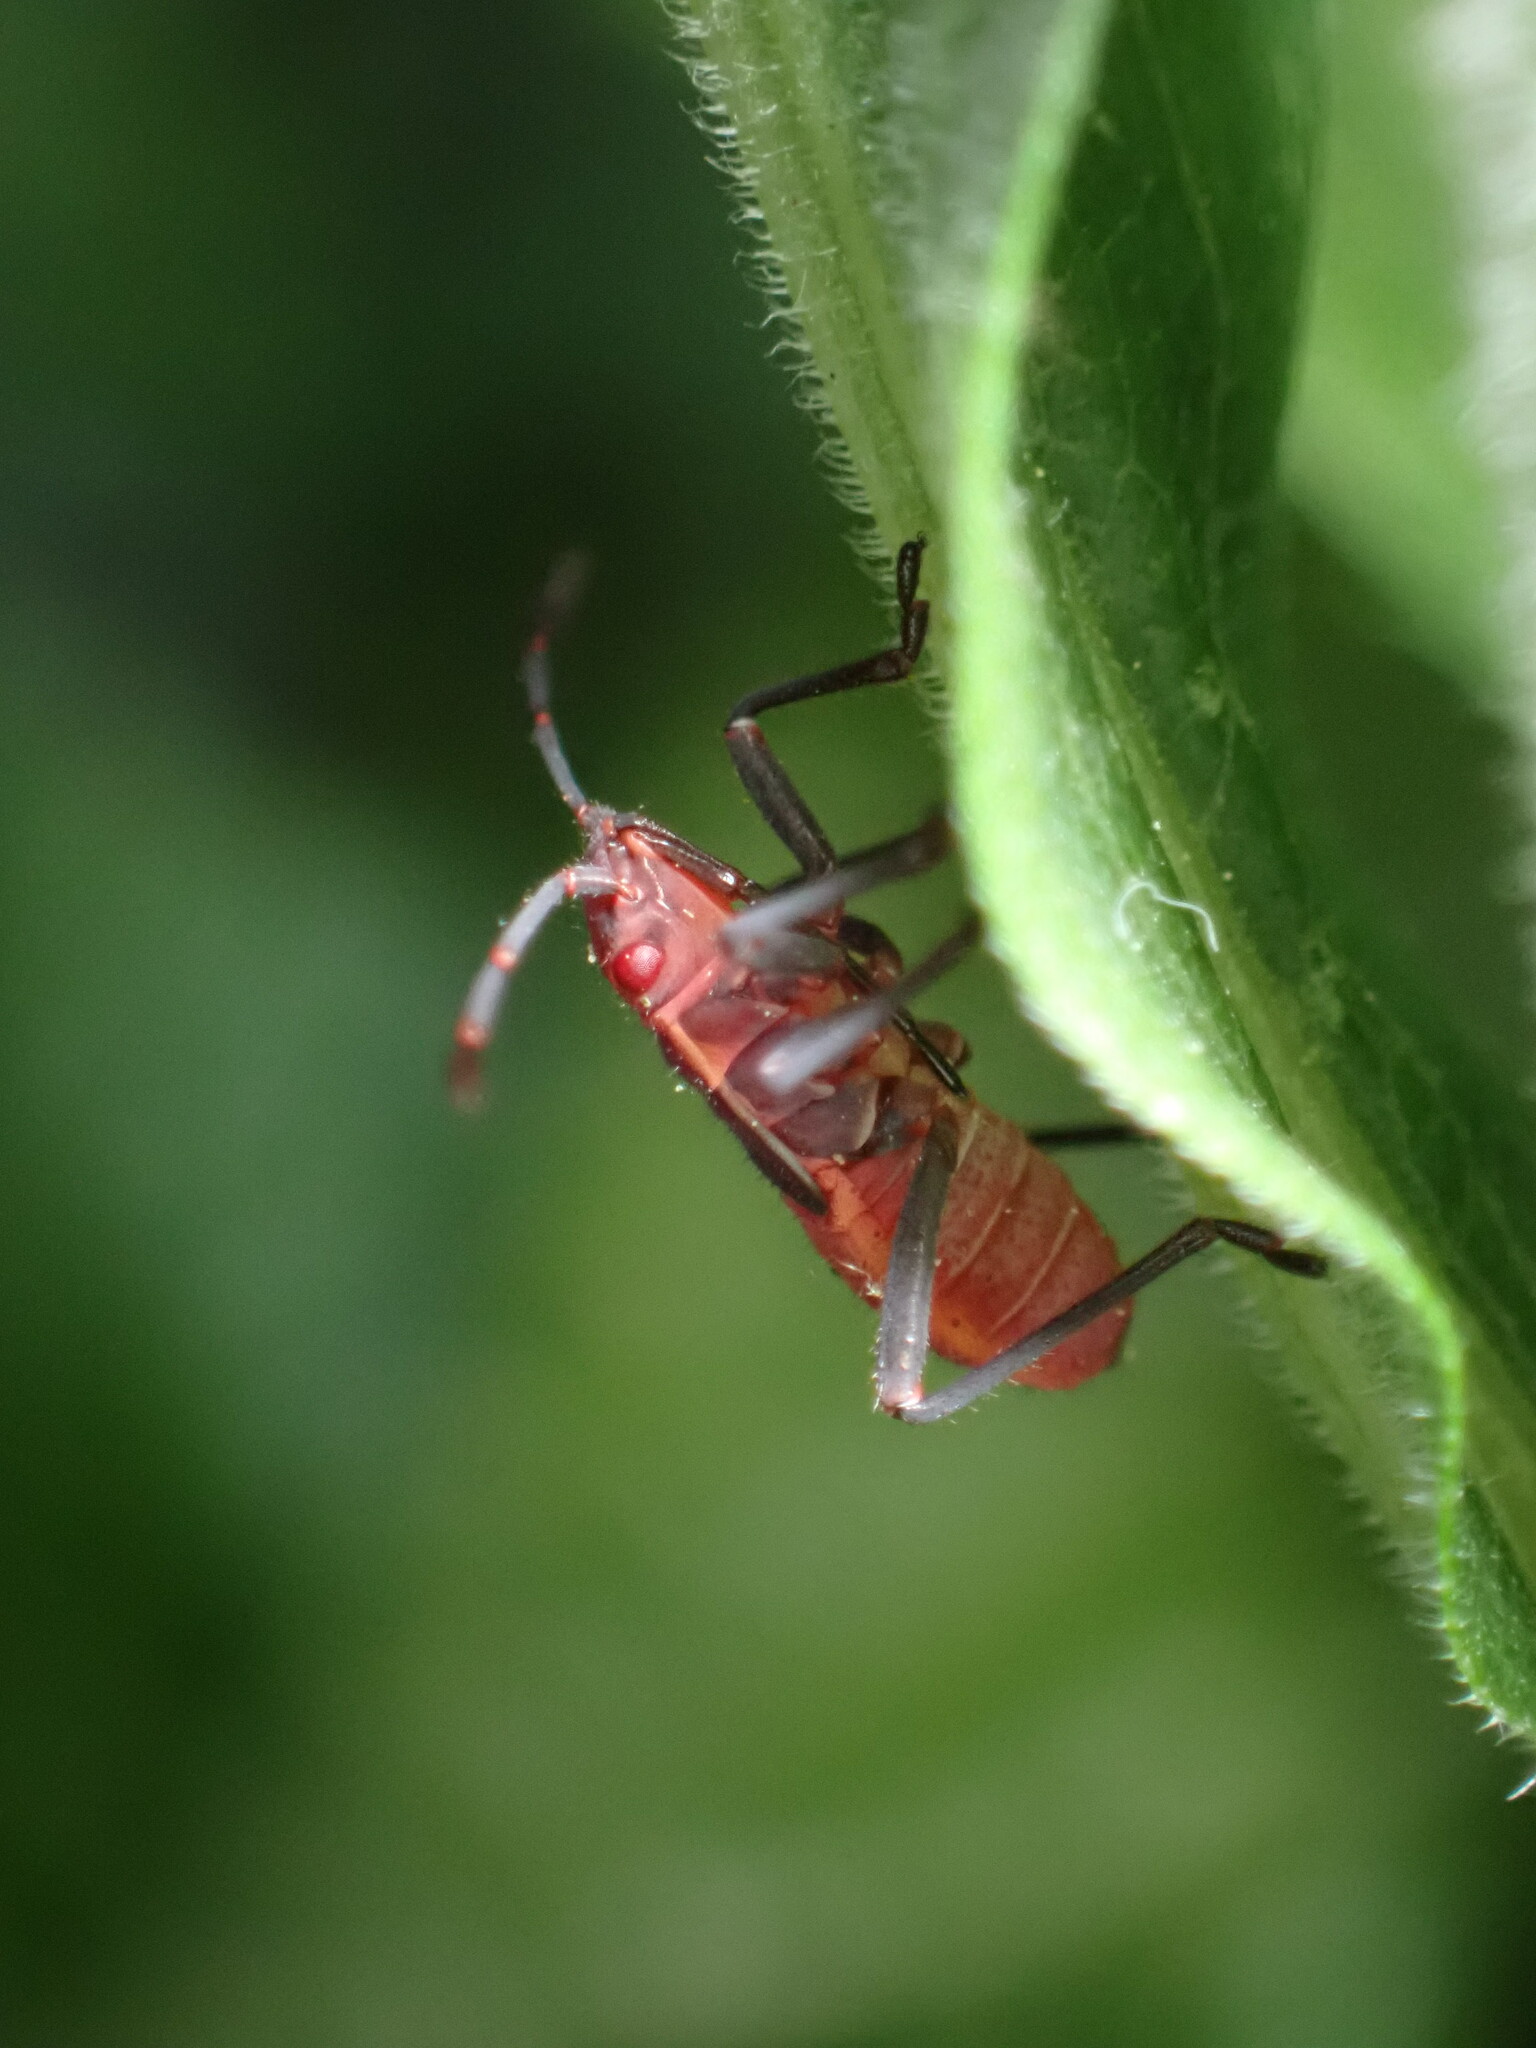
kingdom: Animalia
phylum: Arthropoda
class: Insecta
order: Hemiptera
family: Rhopalidae
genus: Boisea
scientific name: Boisea trivittata
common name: Boxelder bug
